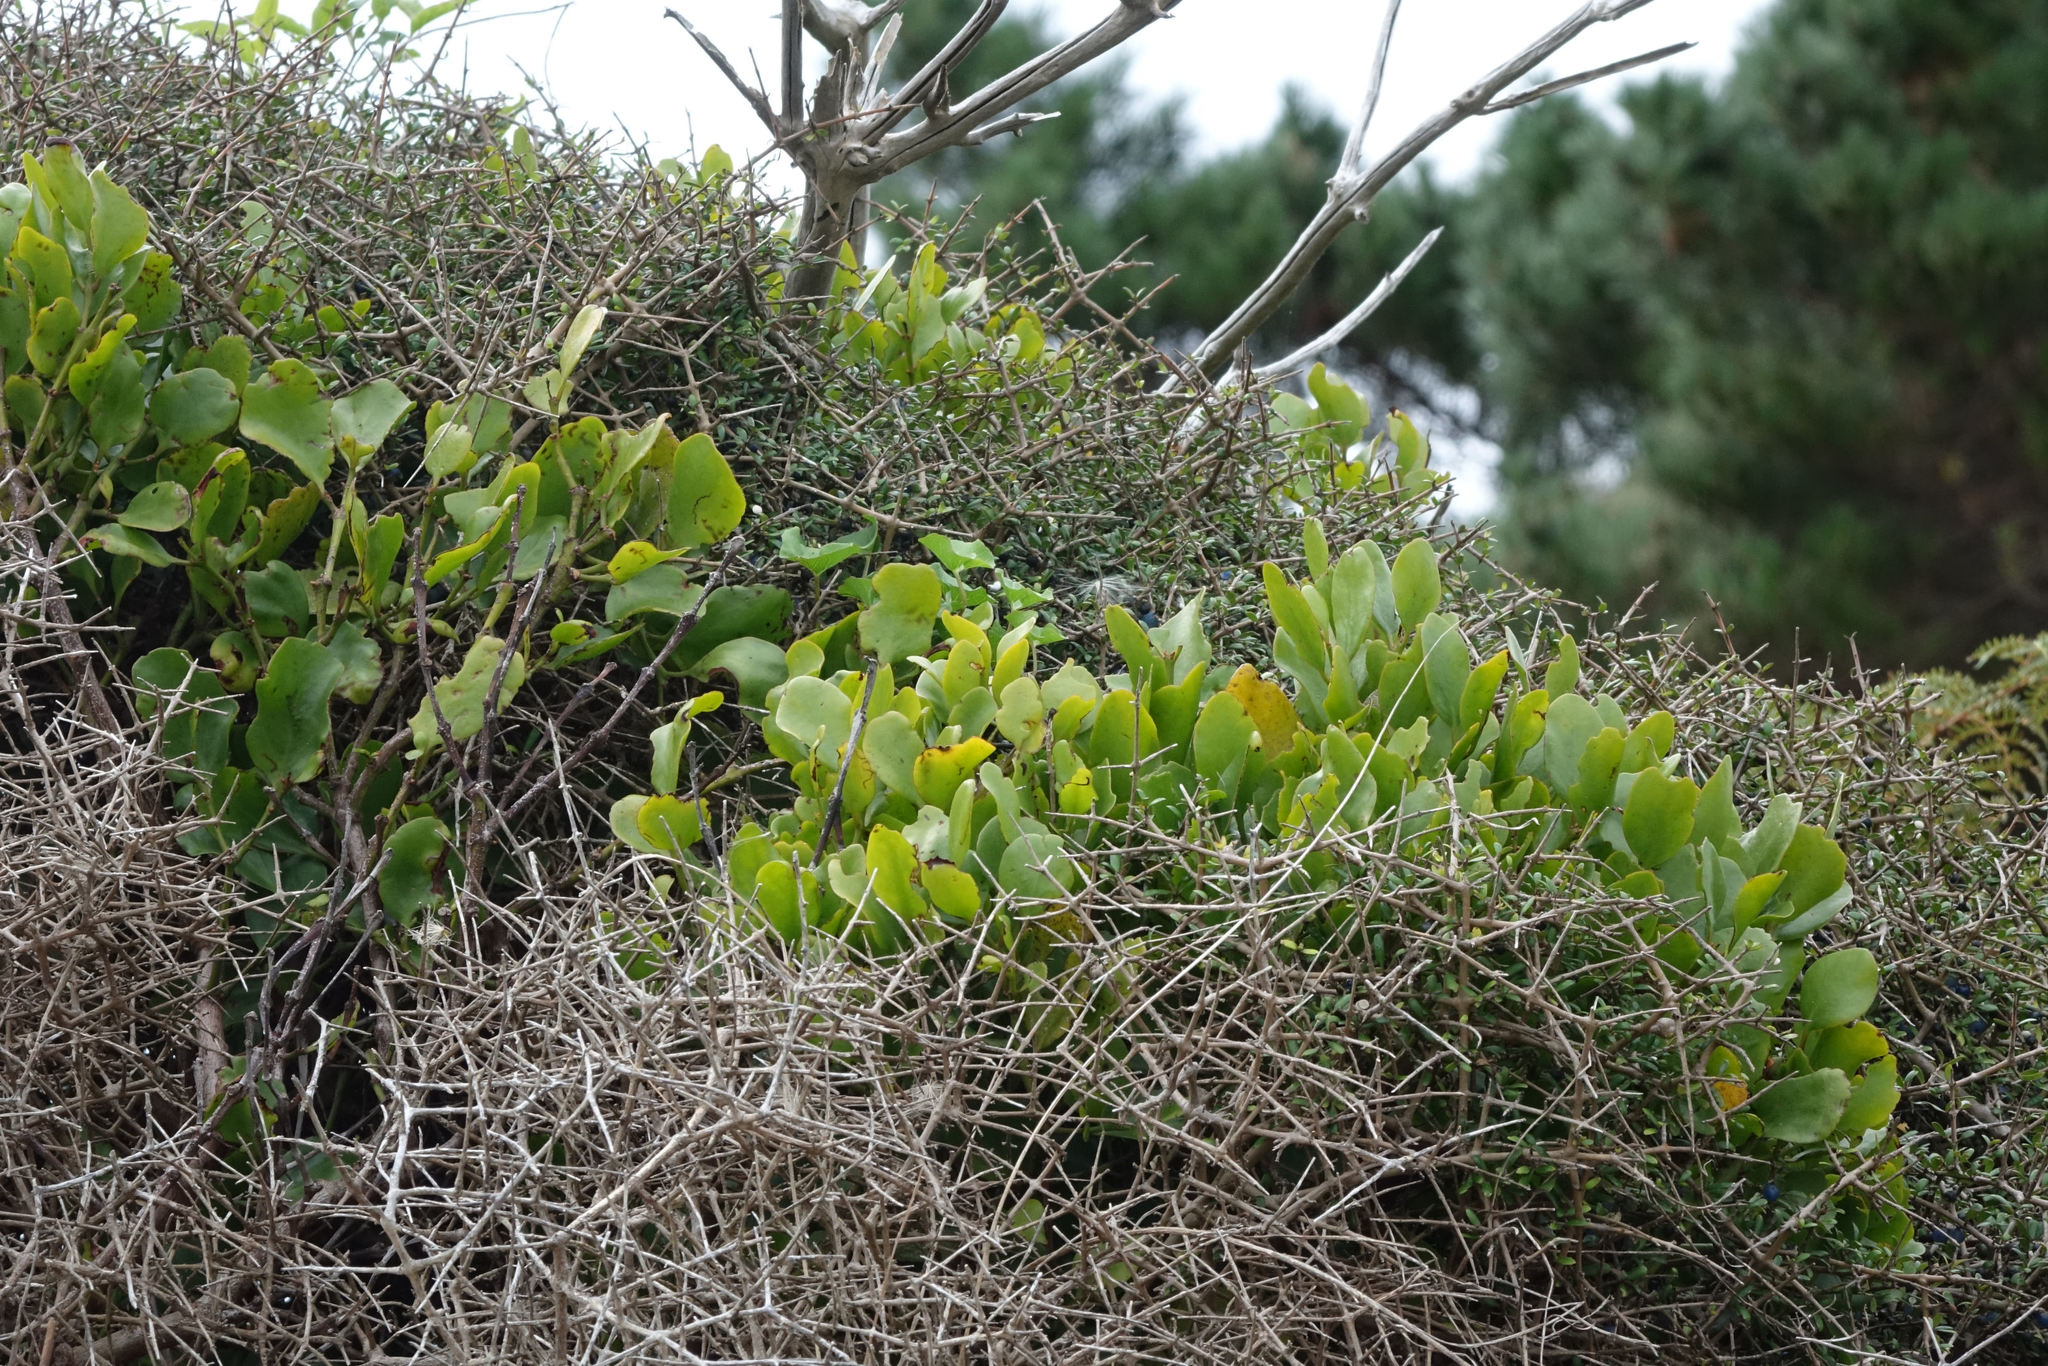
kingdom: Plantae
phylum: Tracheophyta
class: Magnoliopsida
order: Santalales
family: Loranthaceae
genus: Ileostylus
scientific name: Ileostylus micranthus
